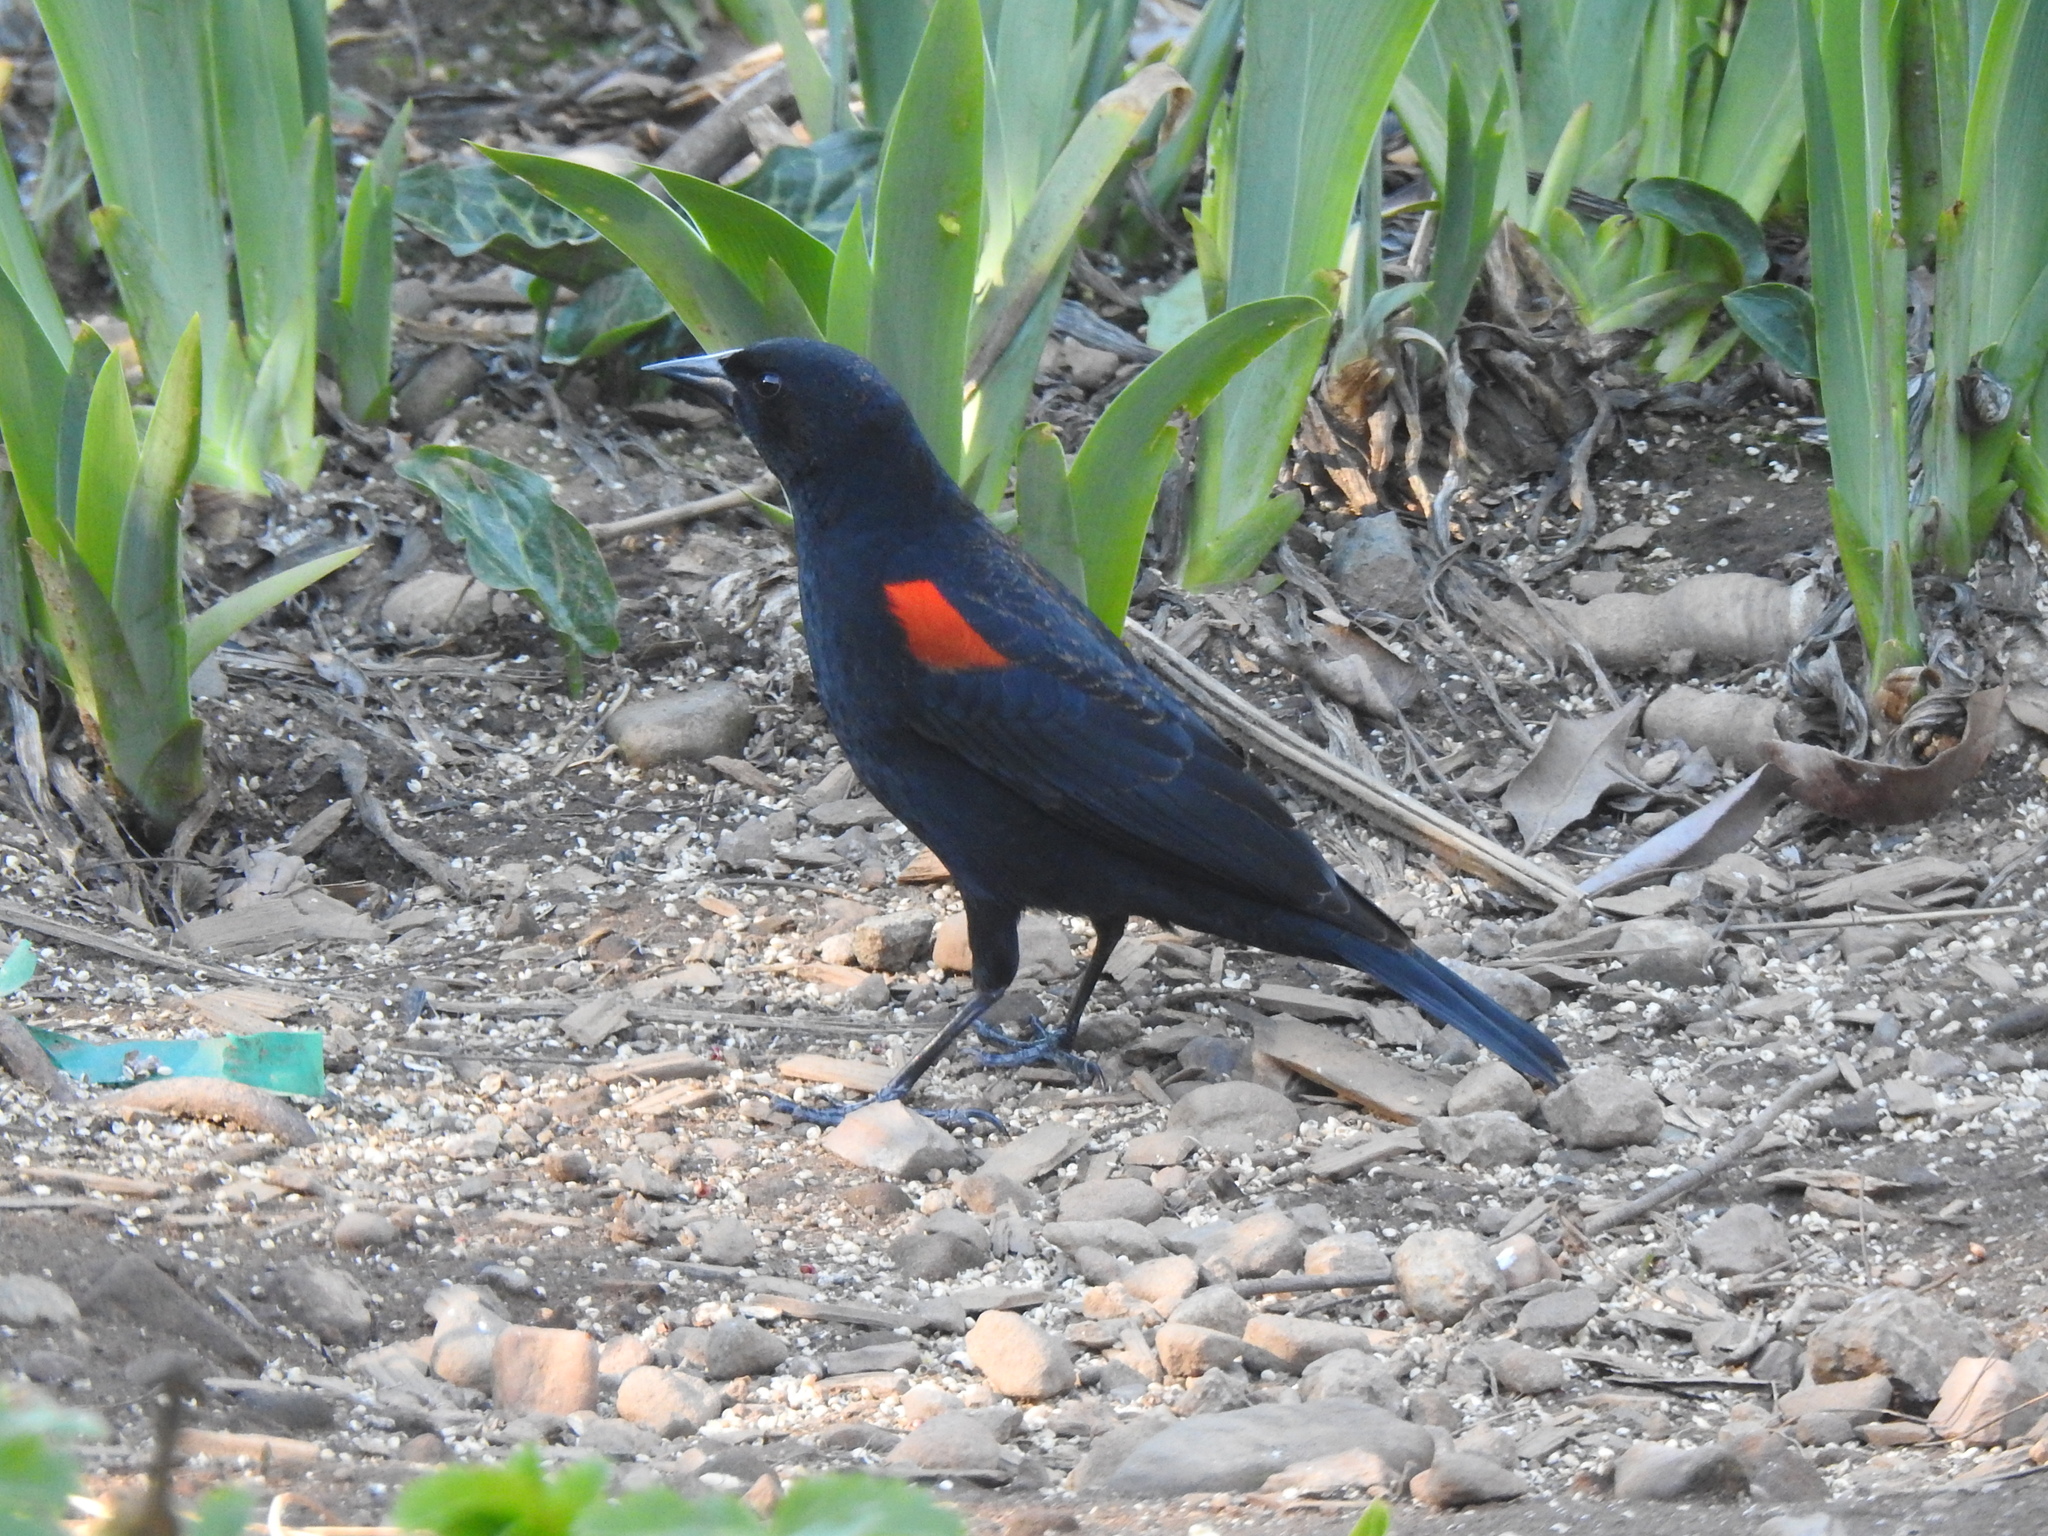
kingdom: Animalia
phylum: Chordata
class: Aves
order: Passeriformes
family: Icteridae
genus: Agelaius
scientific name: Agelaius phoeniceus
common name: Red-winged blackbird
